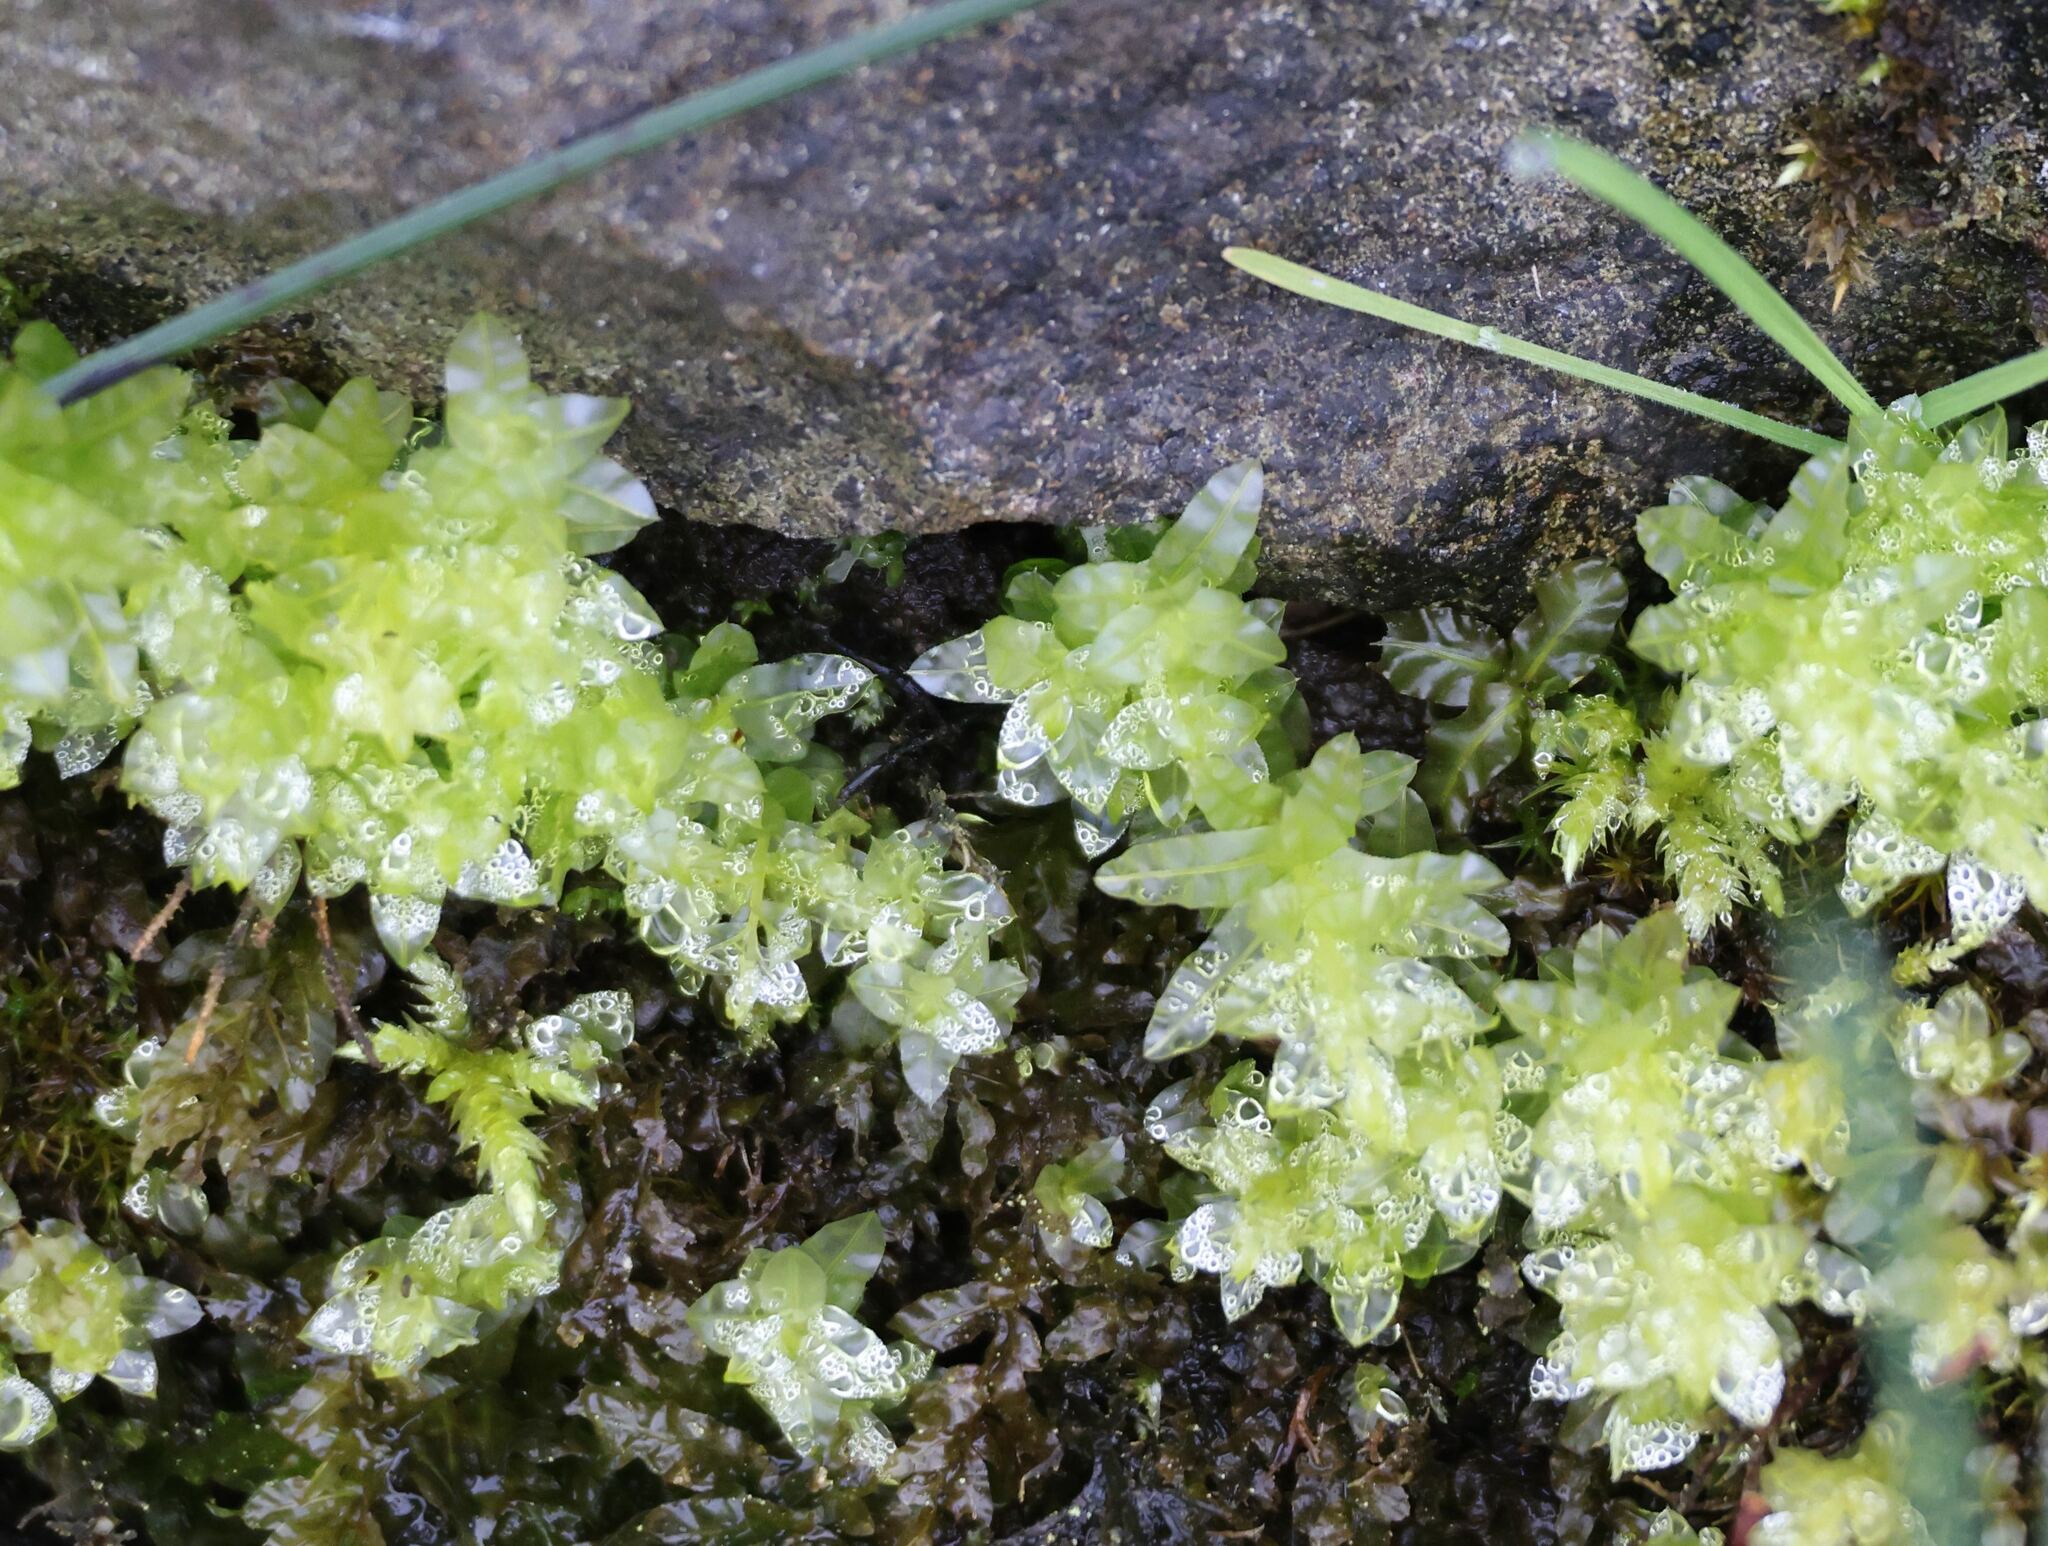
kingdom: Plantae
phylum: Bryophyta
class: Bryopsida
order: Bryales
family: Mniaceae
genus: Plagiomnium
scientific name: Plagiomnium undulatum
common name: Hart's-tongue thyme-moss
